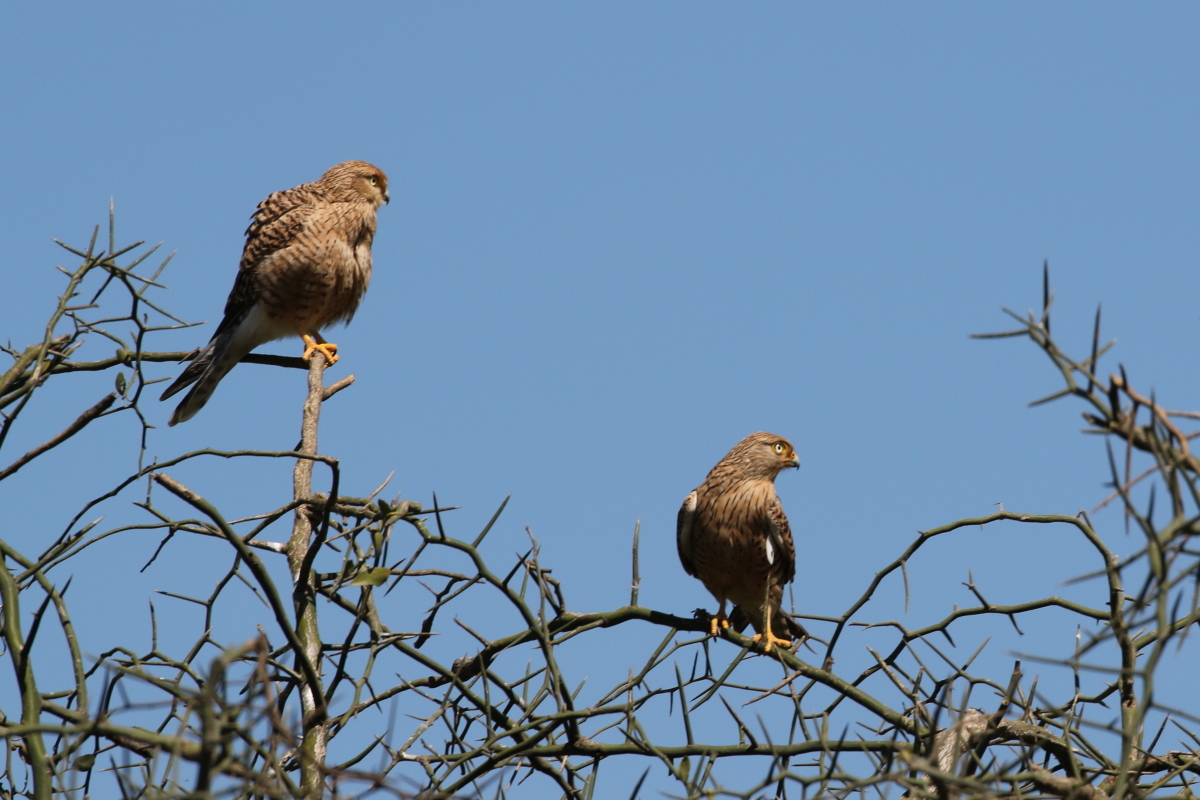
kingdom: Animalia
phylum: Chordata
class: Aves
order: Falconiformes
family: Falconidae
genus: Falco
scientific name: Falco rupicoloides
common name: Greater kestrel
